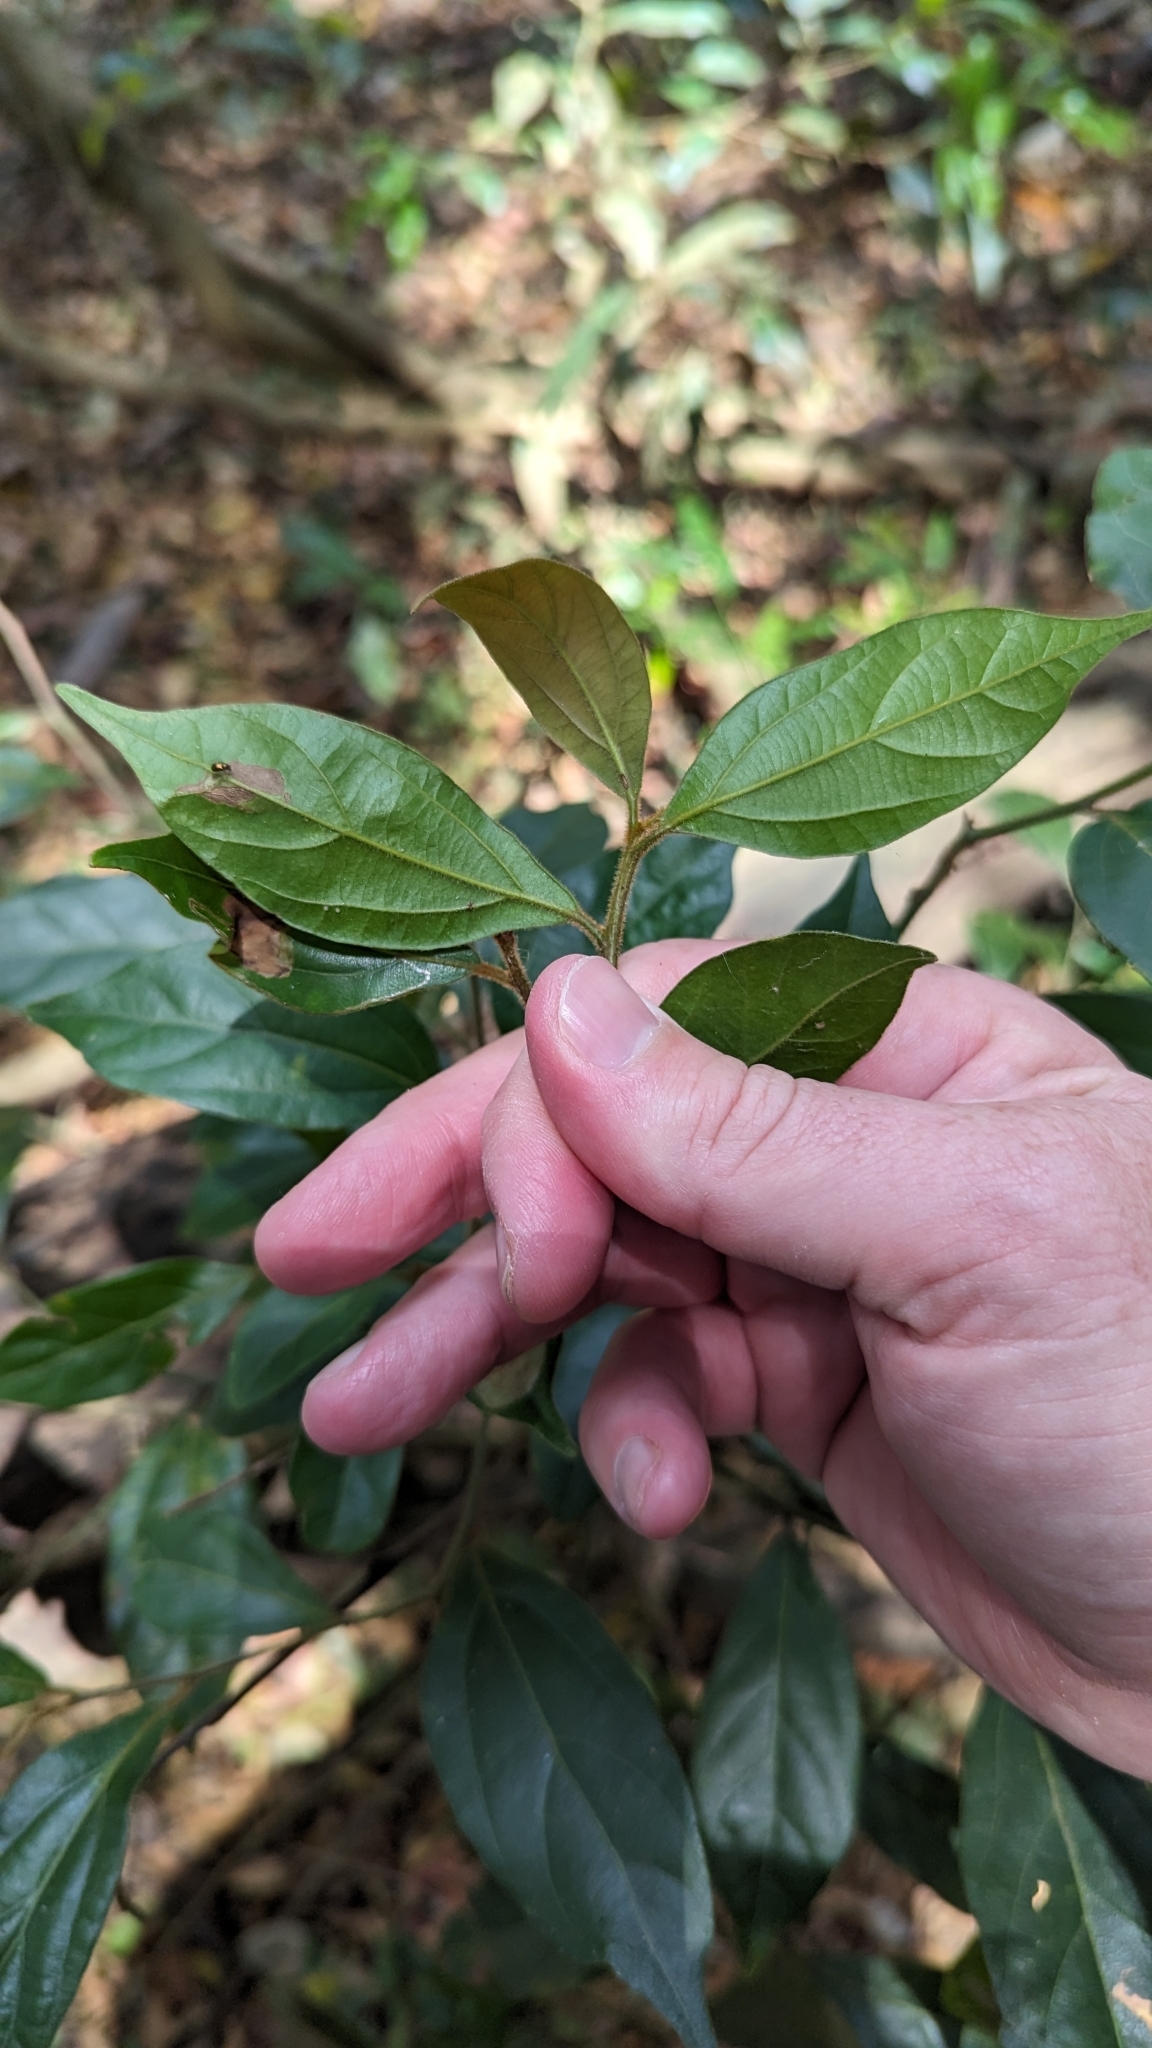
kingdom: Plantae
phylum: Tracheophyta
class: Magnoliopsida
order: Laurales
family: Lauraceae
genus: Cryptocarya
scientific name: Cryptocarya triplinervis
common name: Three-vein cryptocarya
